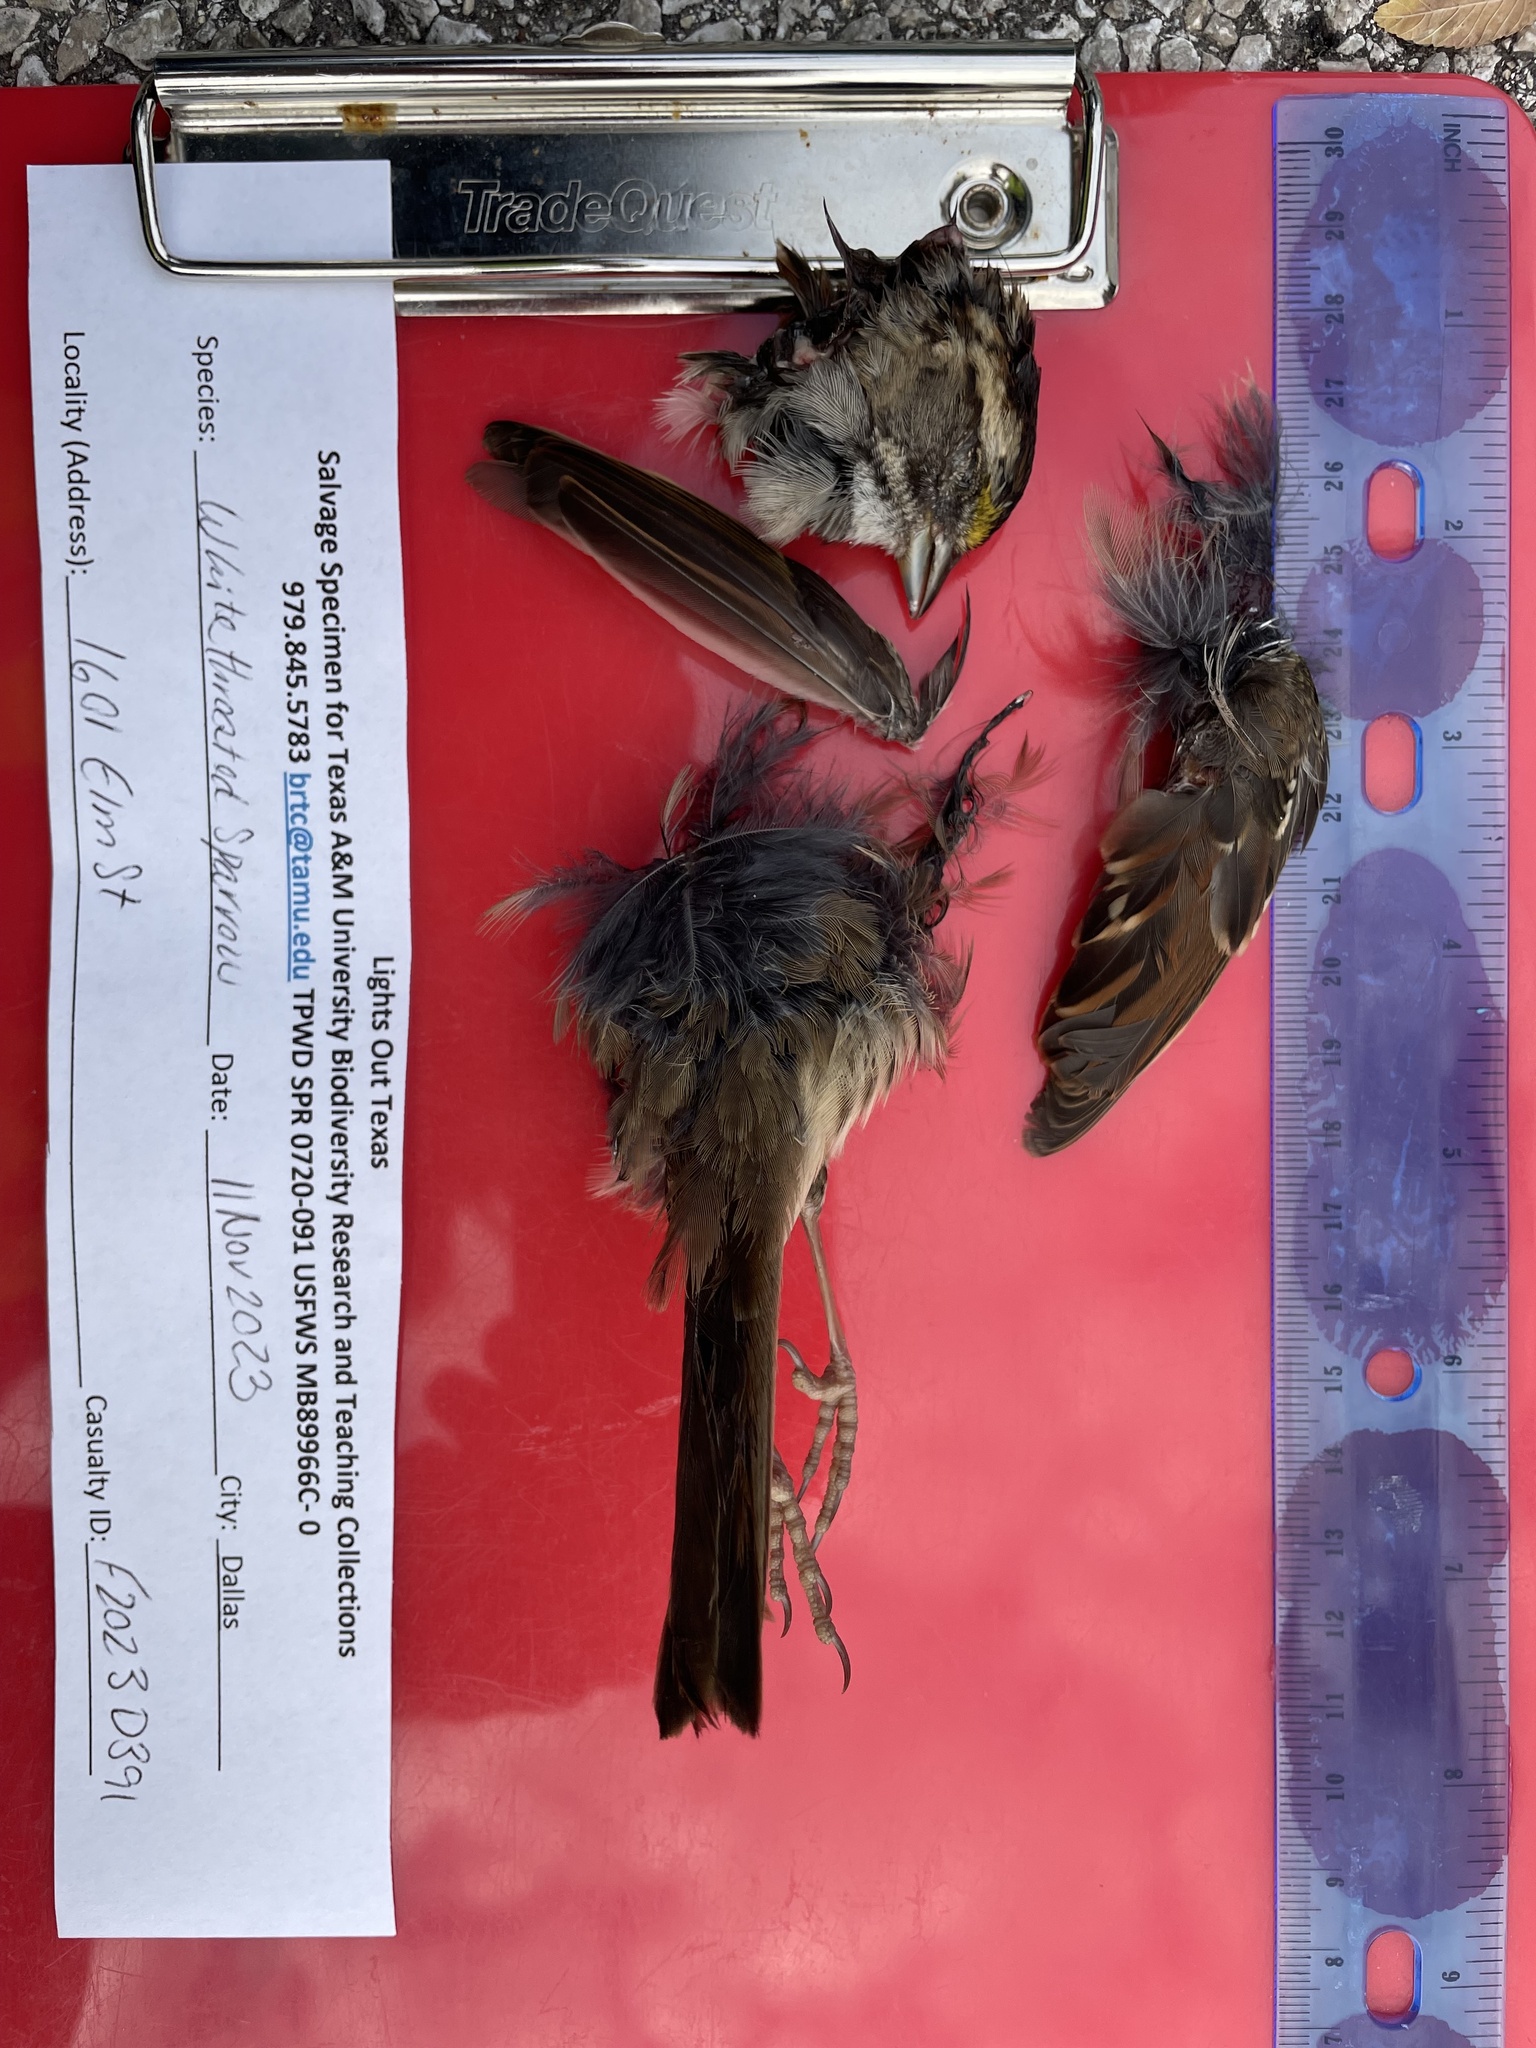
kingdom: Animalia
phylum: Chordata
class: Aves
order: Passeriformes
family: Passerellidae
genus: Zonotrichia
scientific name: Zonotrichia albicollis
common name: White-throated sparrow
